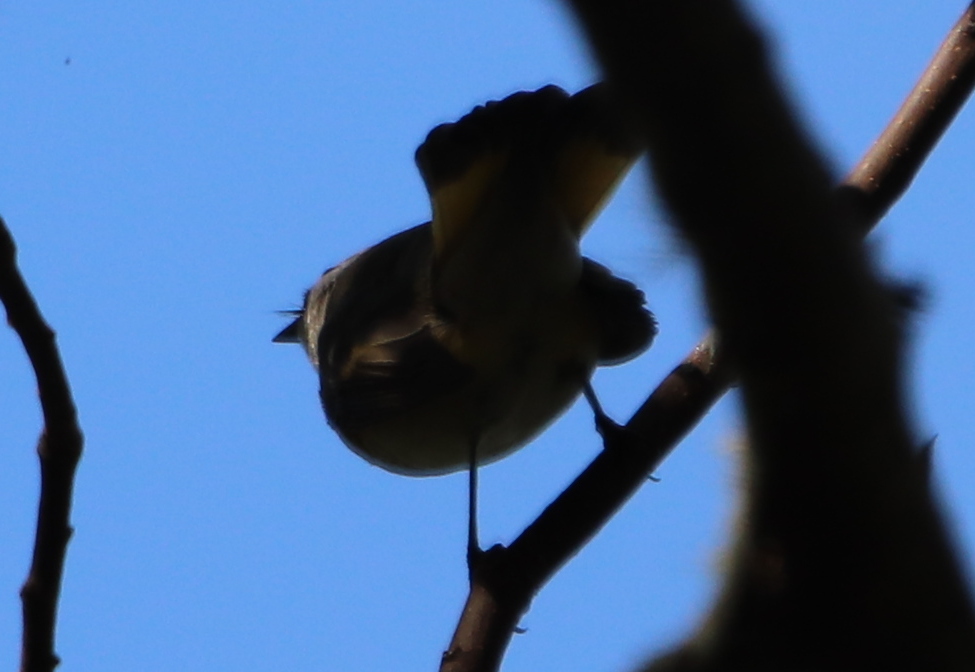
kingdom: Animalia
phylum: Chordata
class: Aves
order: Passeriformes
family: Parulidae
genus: Setophaga
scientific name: Setophaga ruticilla
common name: American redstart
